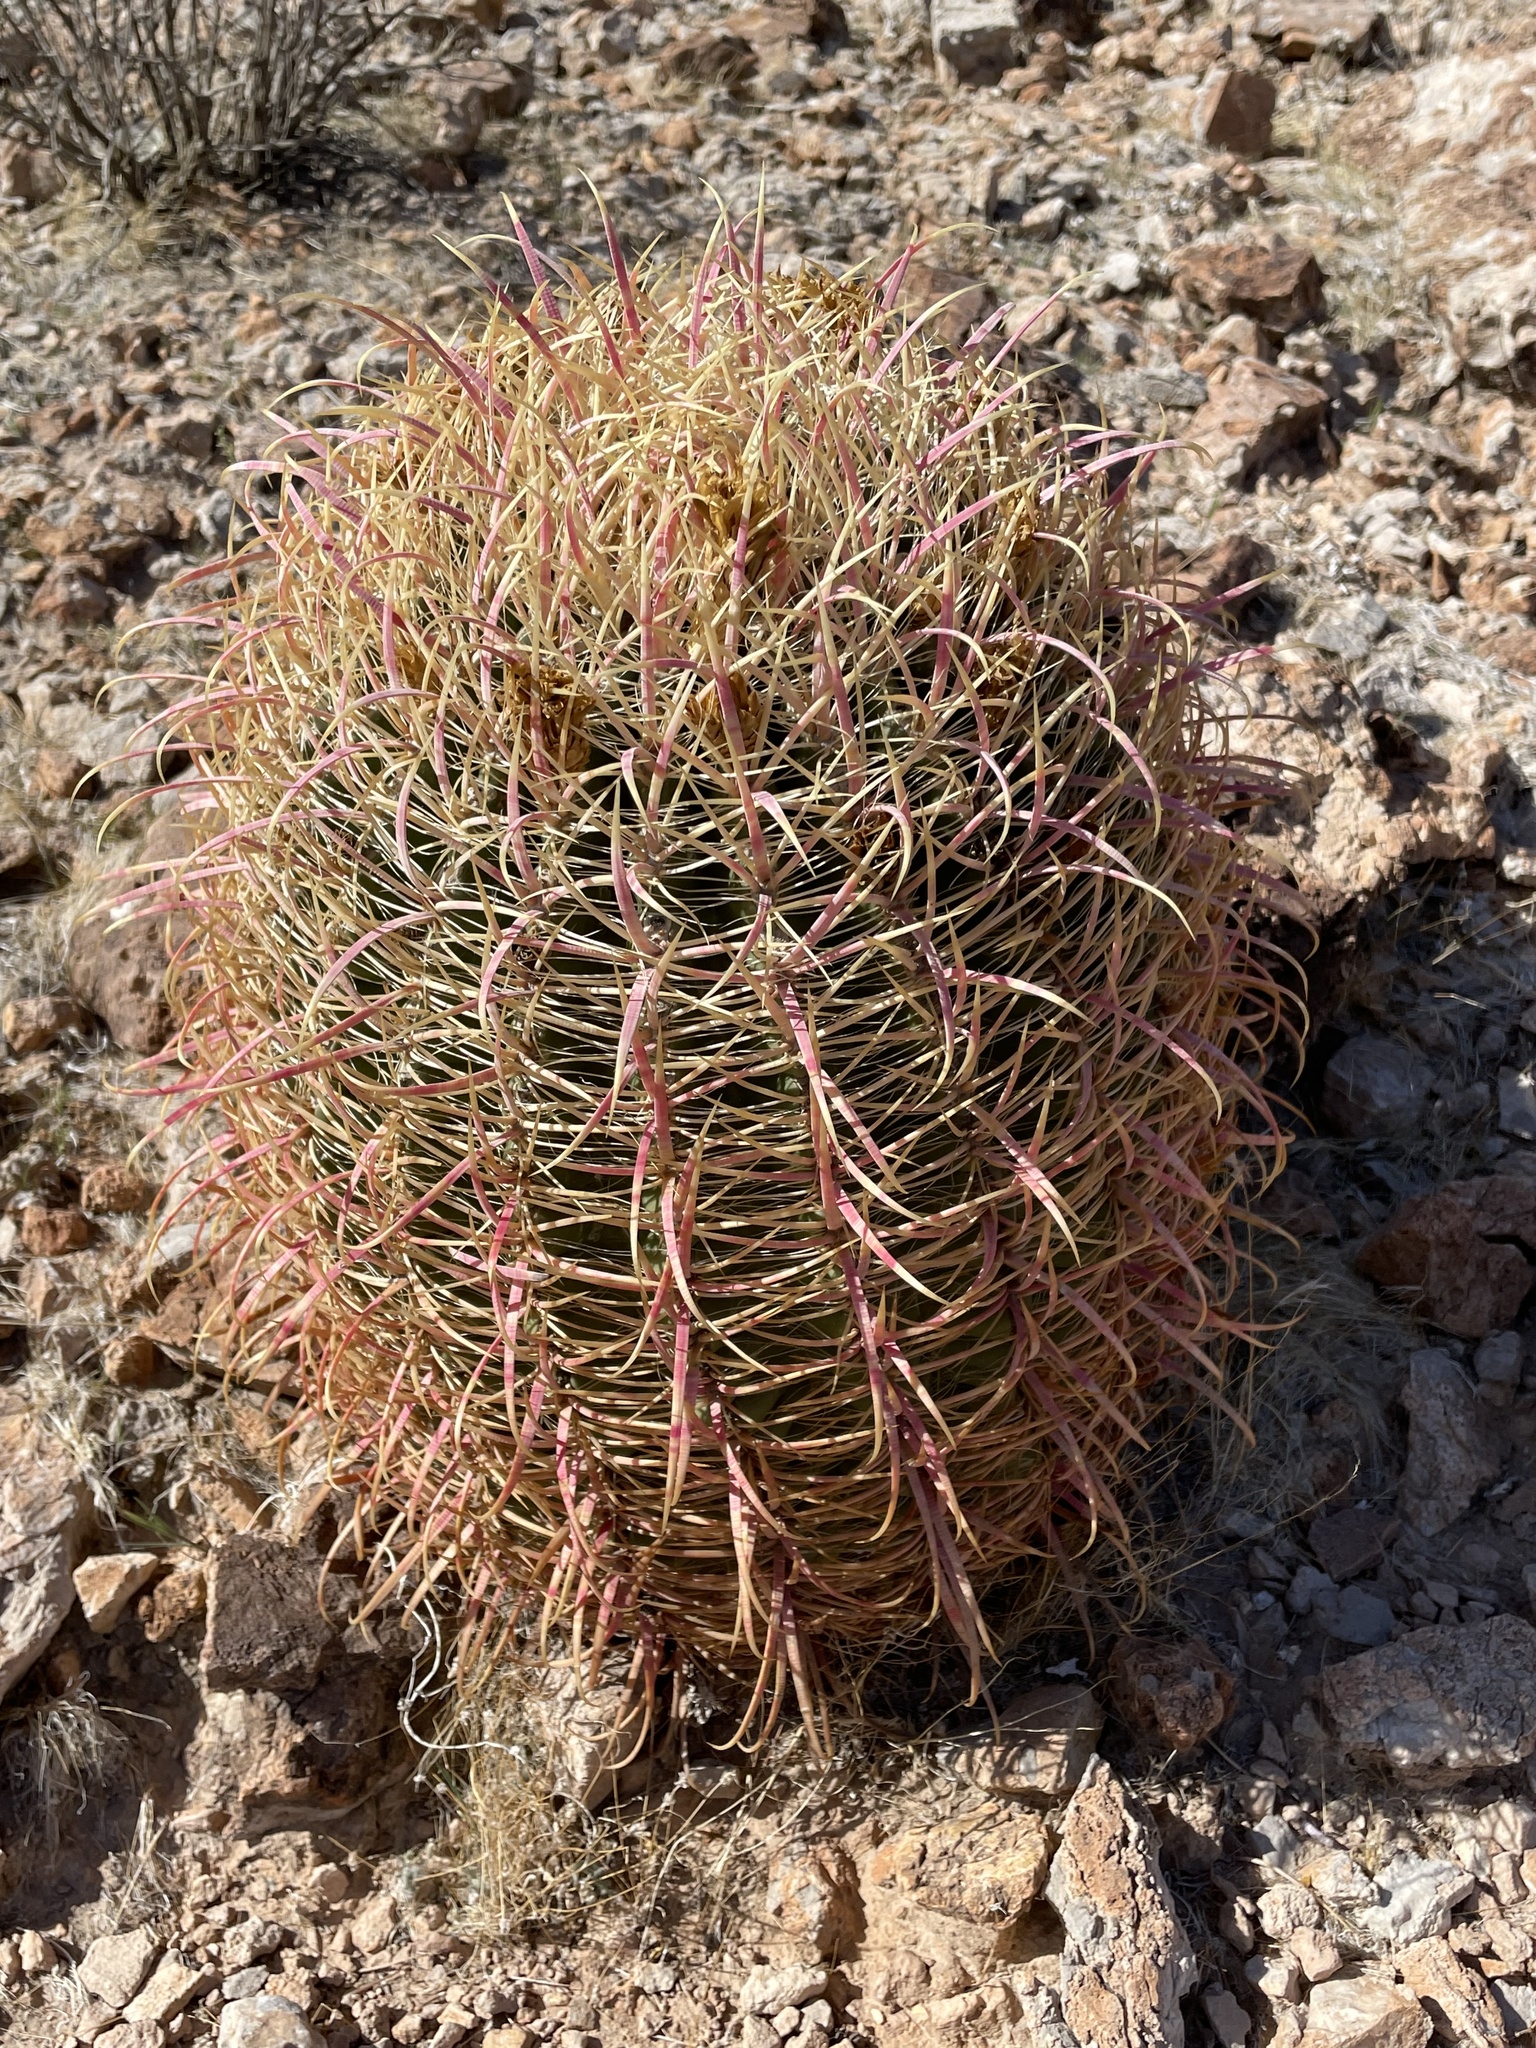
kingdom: Plantae
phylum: Tracheophyta
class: Magnoliopsida
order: Caryophyllales
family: Cactaceae
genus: Ferocactus
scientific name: Ferocactus cylindraceus
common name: California barrel cactus
